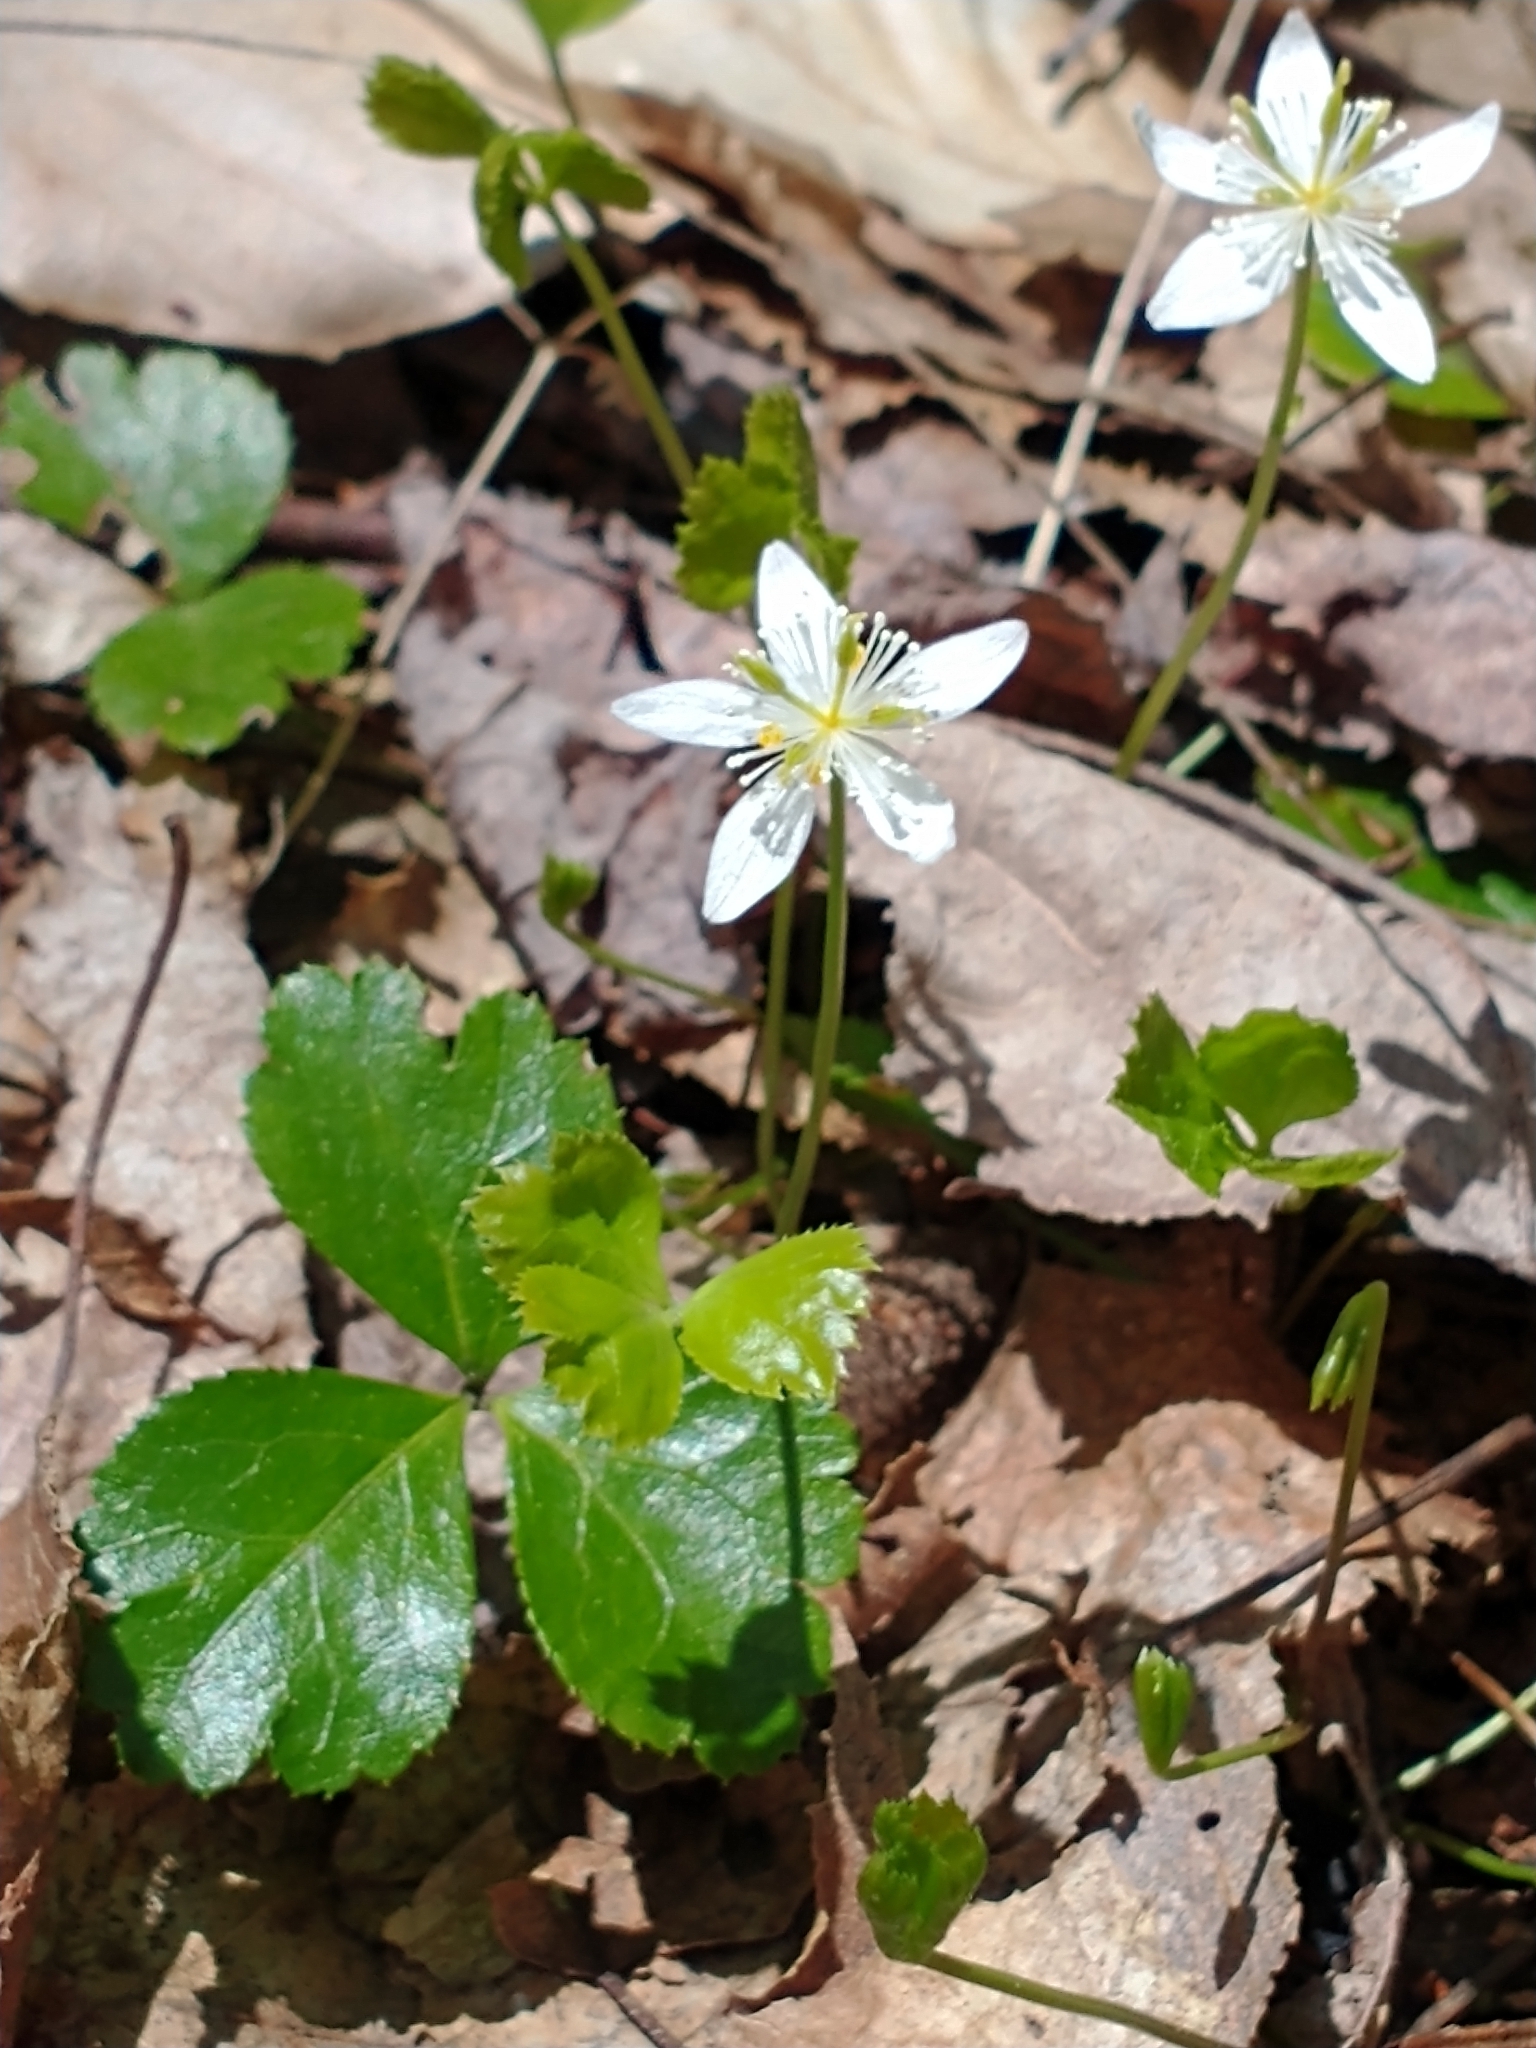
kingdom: Plantae
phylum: Tracheophyta
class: Magnoliopsida
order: Ranunculales
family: Ranunculaceae
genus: Coptis
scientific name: Coptis trifolia
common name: Canker-root
